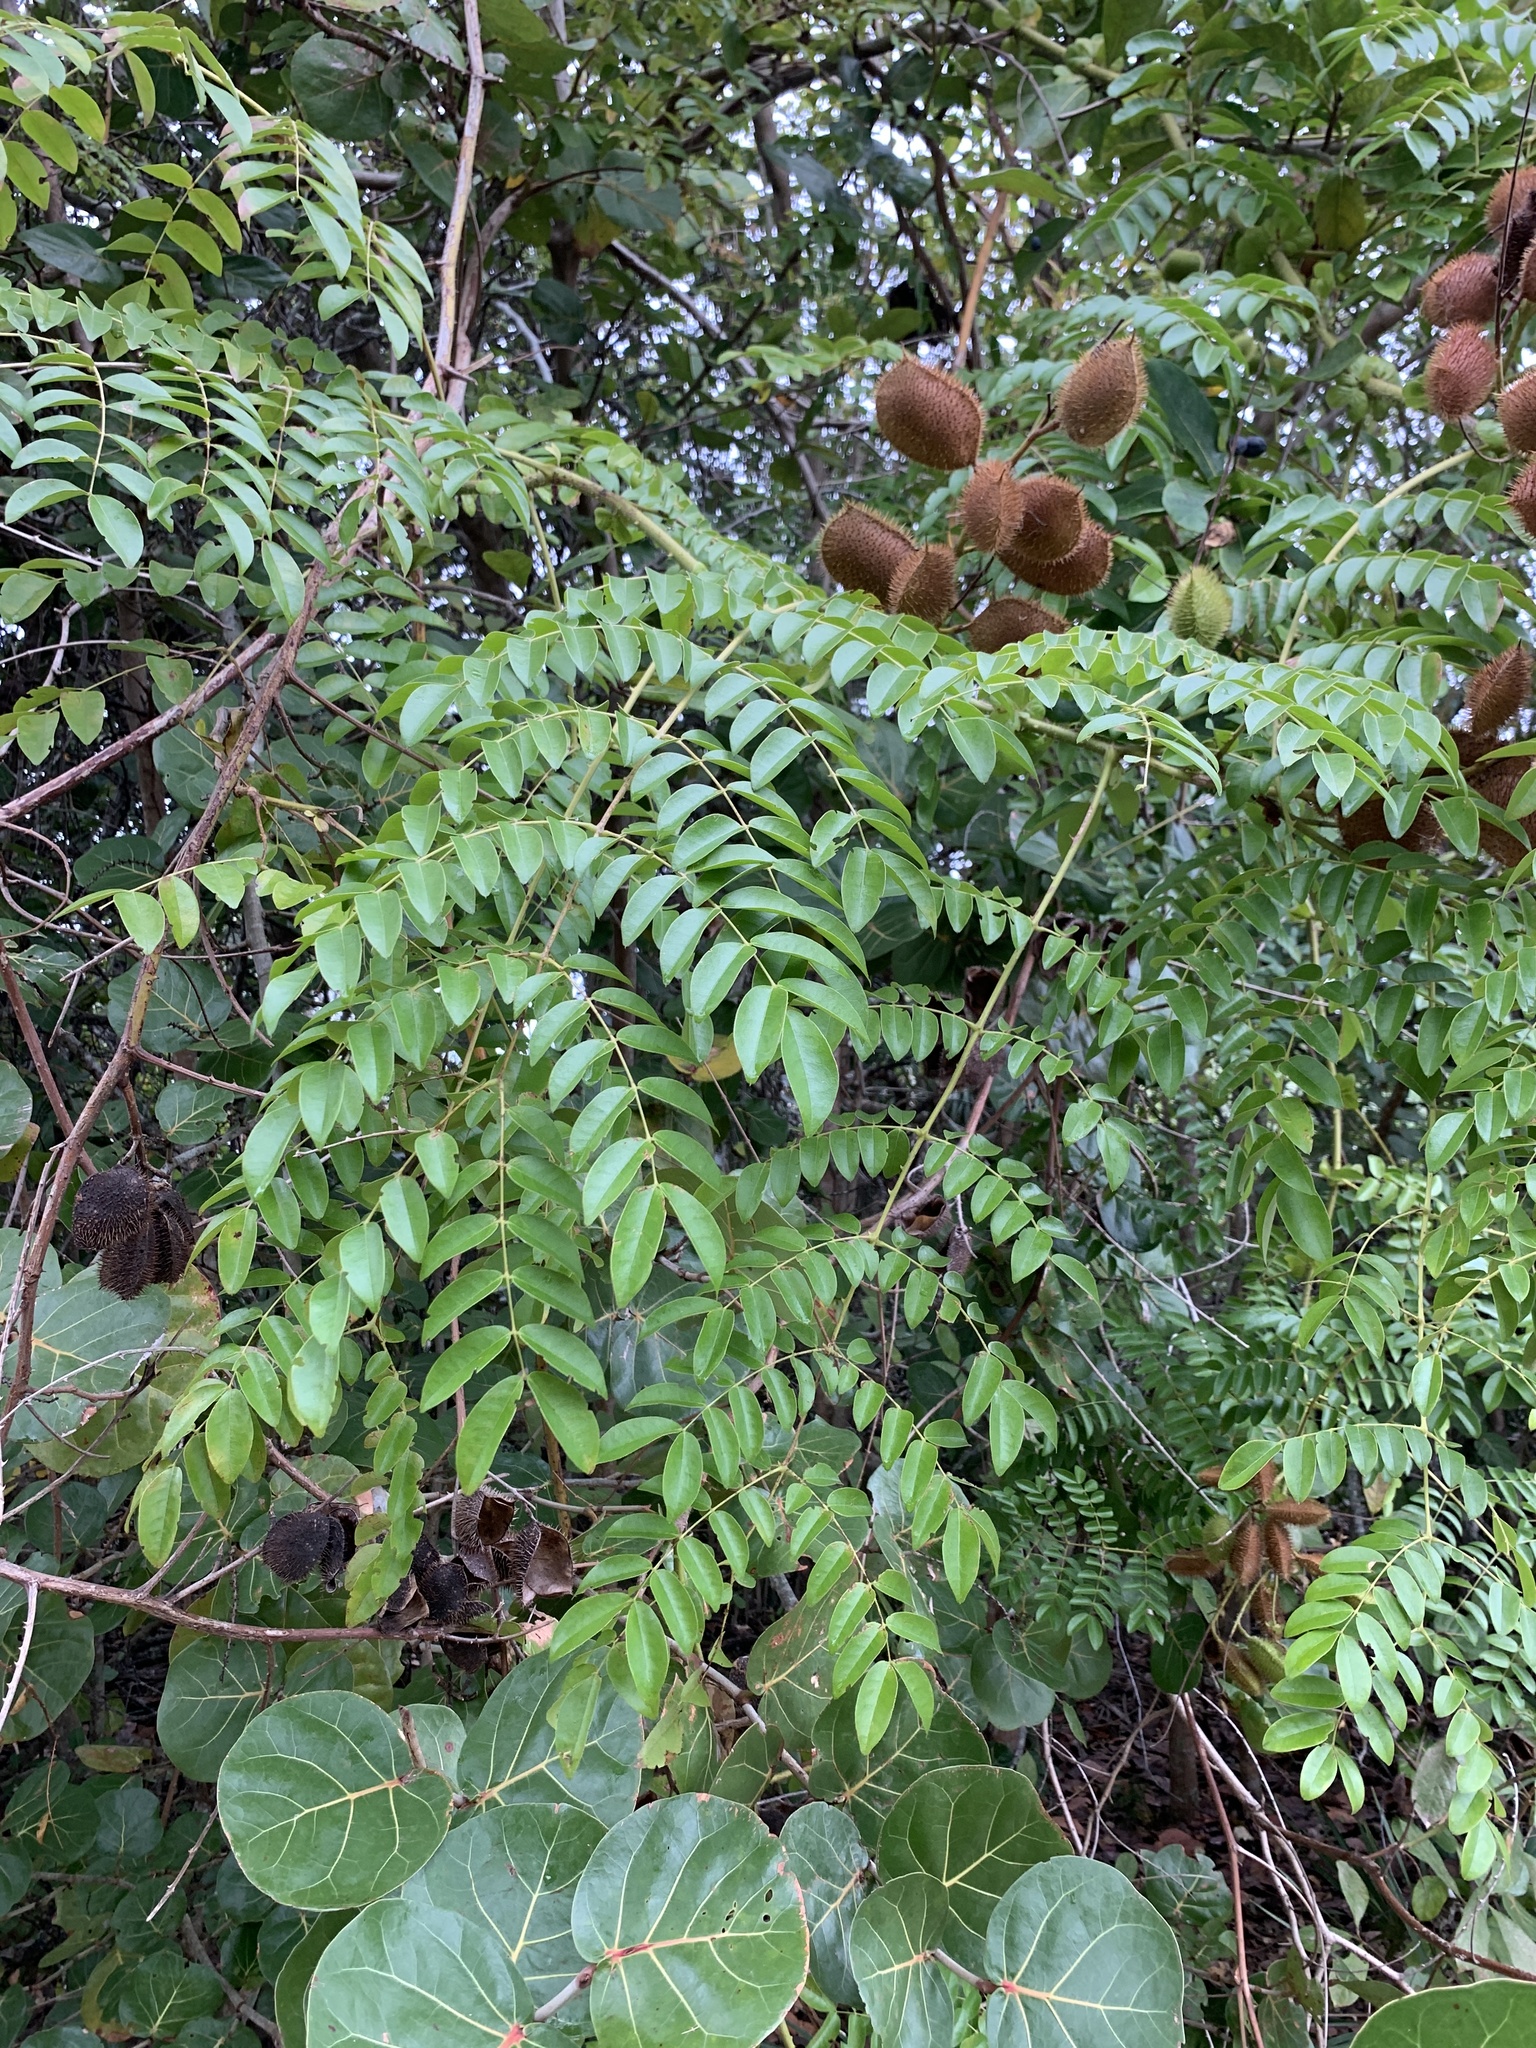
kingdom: Plantae
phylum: Tracheophyta
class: Magnoliopsida
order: Fabales
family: Fabaceae
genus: Guilandina
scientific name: Guilandina bonduc
